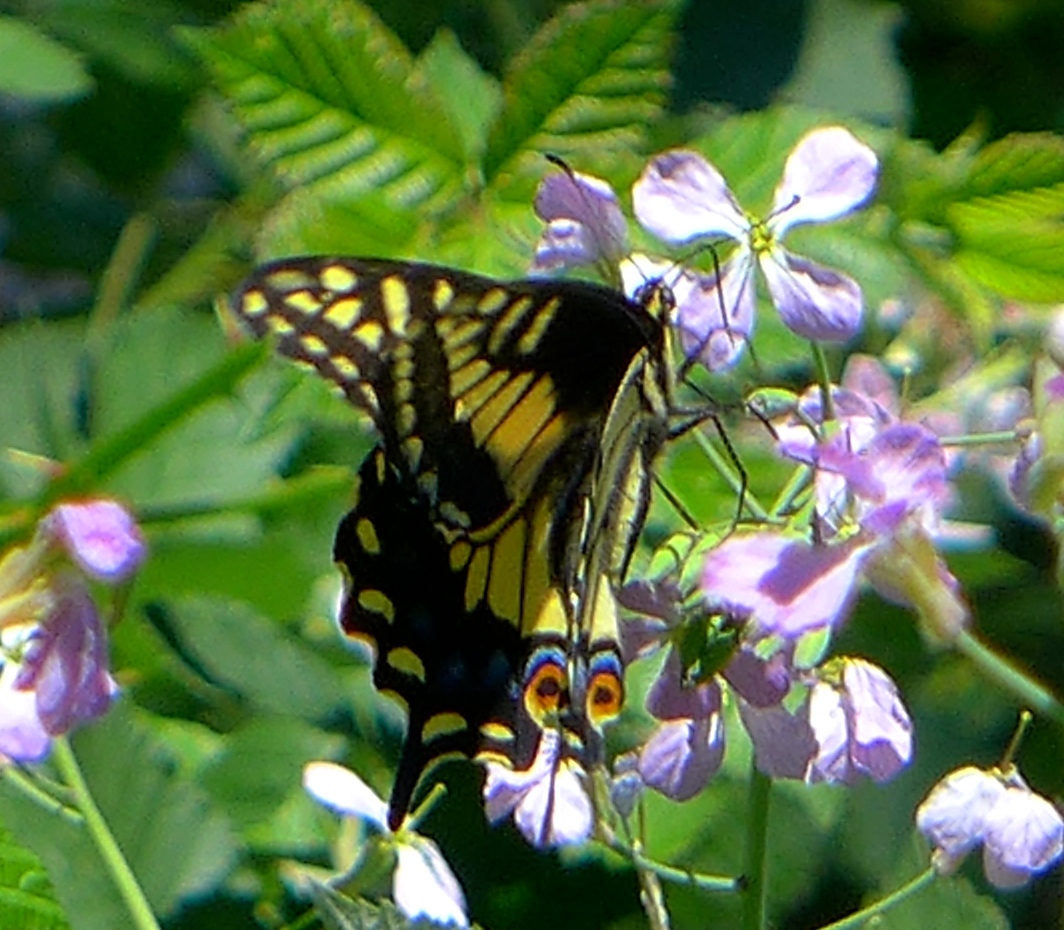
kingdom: Animalia
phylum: Arthropoda
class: Insecta
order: Lepidoptera
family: Papilionidae
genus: Papilio
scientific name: Papilio zelicaon
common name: Anise swallowtail
